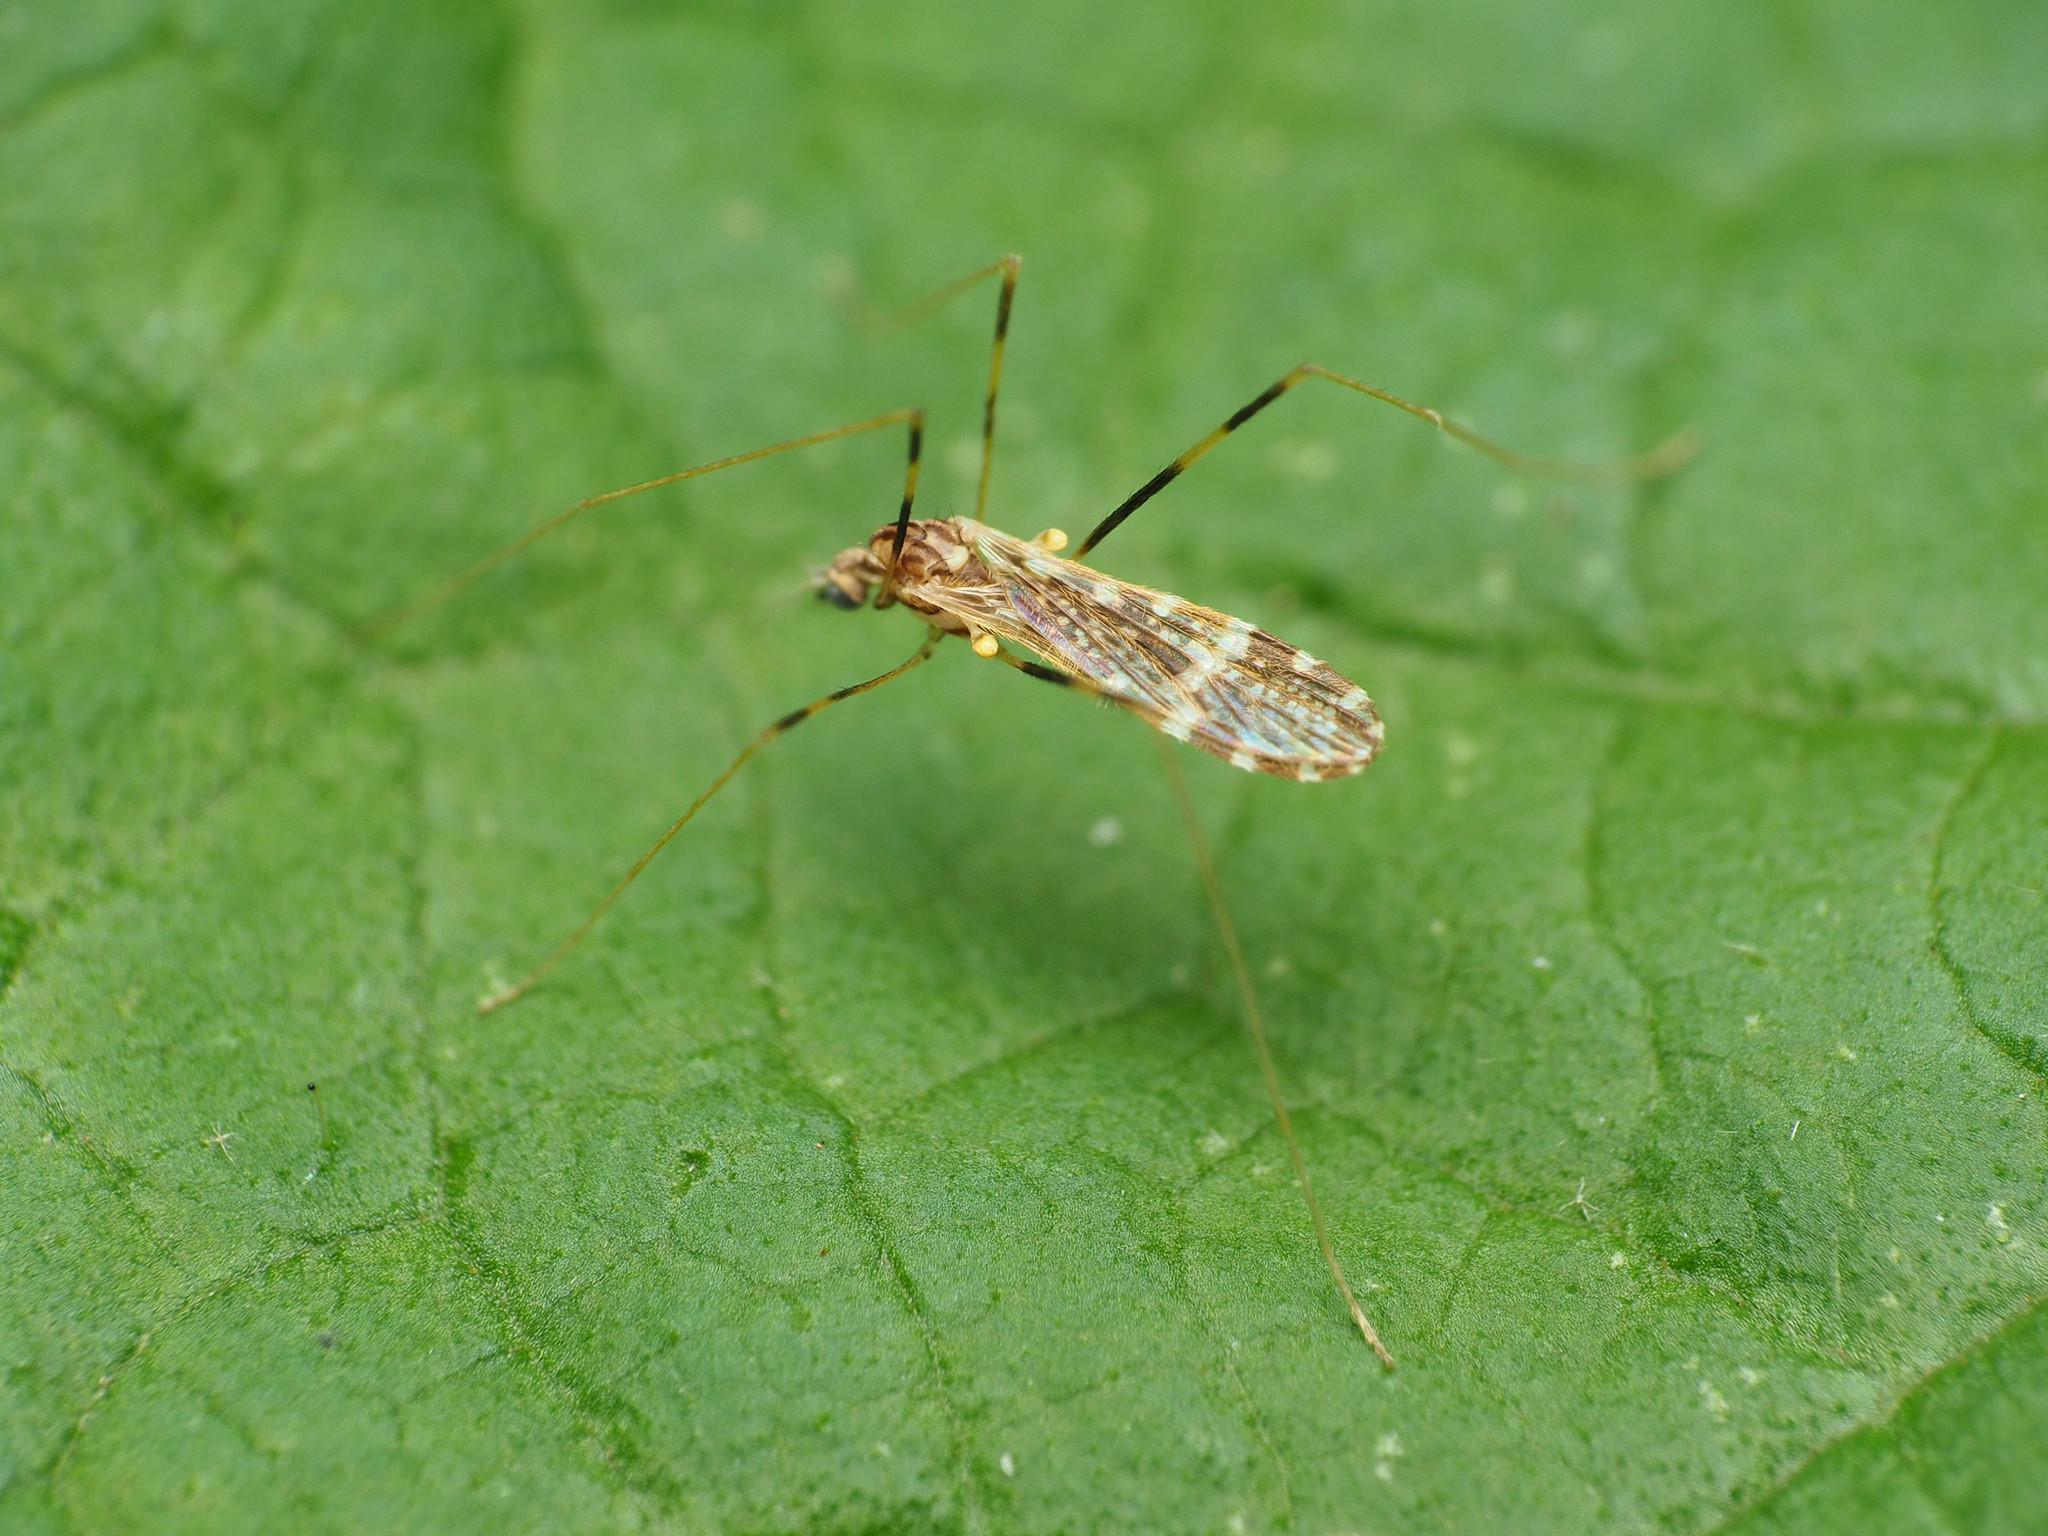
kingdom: Animalia
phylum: Arthropoda
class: Insecta
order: Diptera
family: Limoniidae
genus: Erioptera
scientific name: Erioptera caliptera
